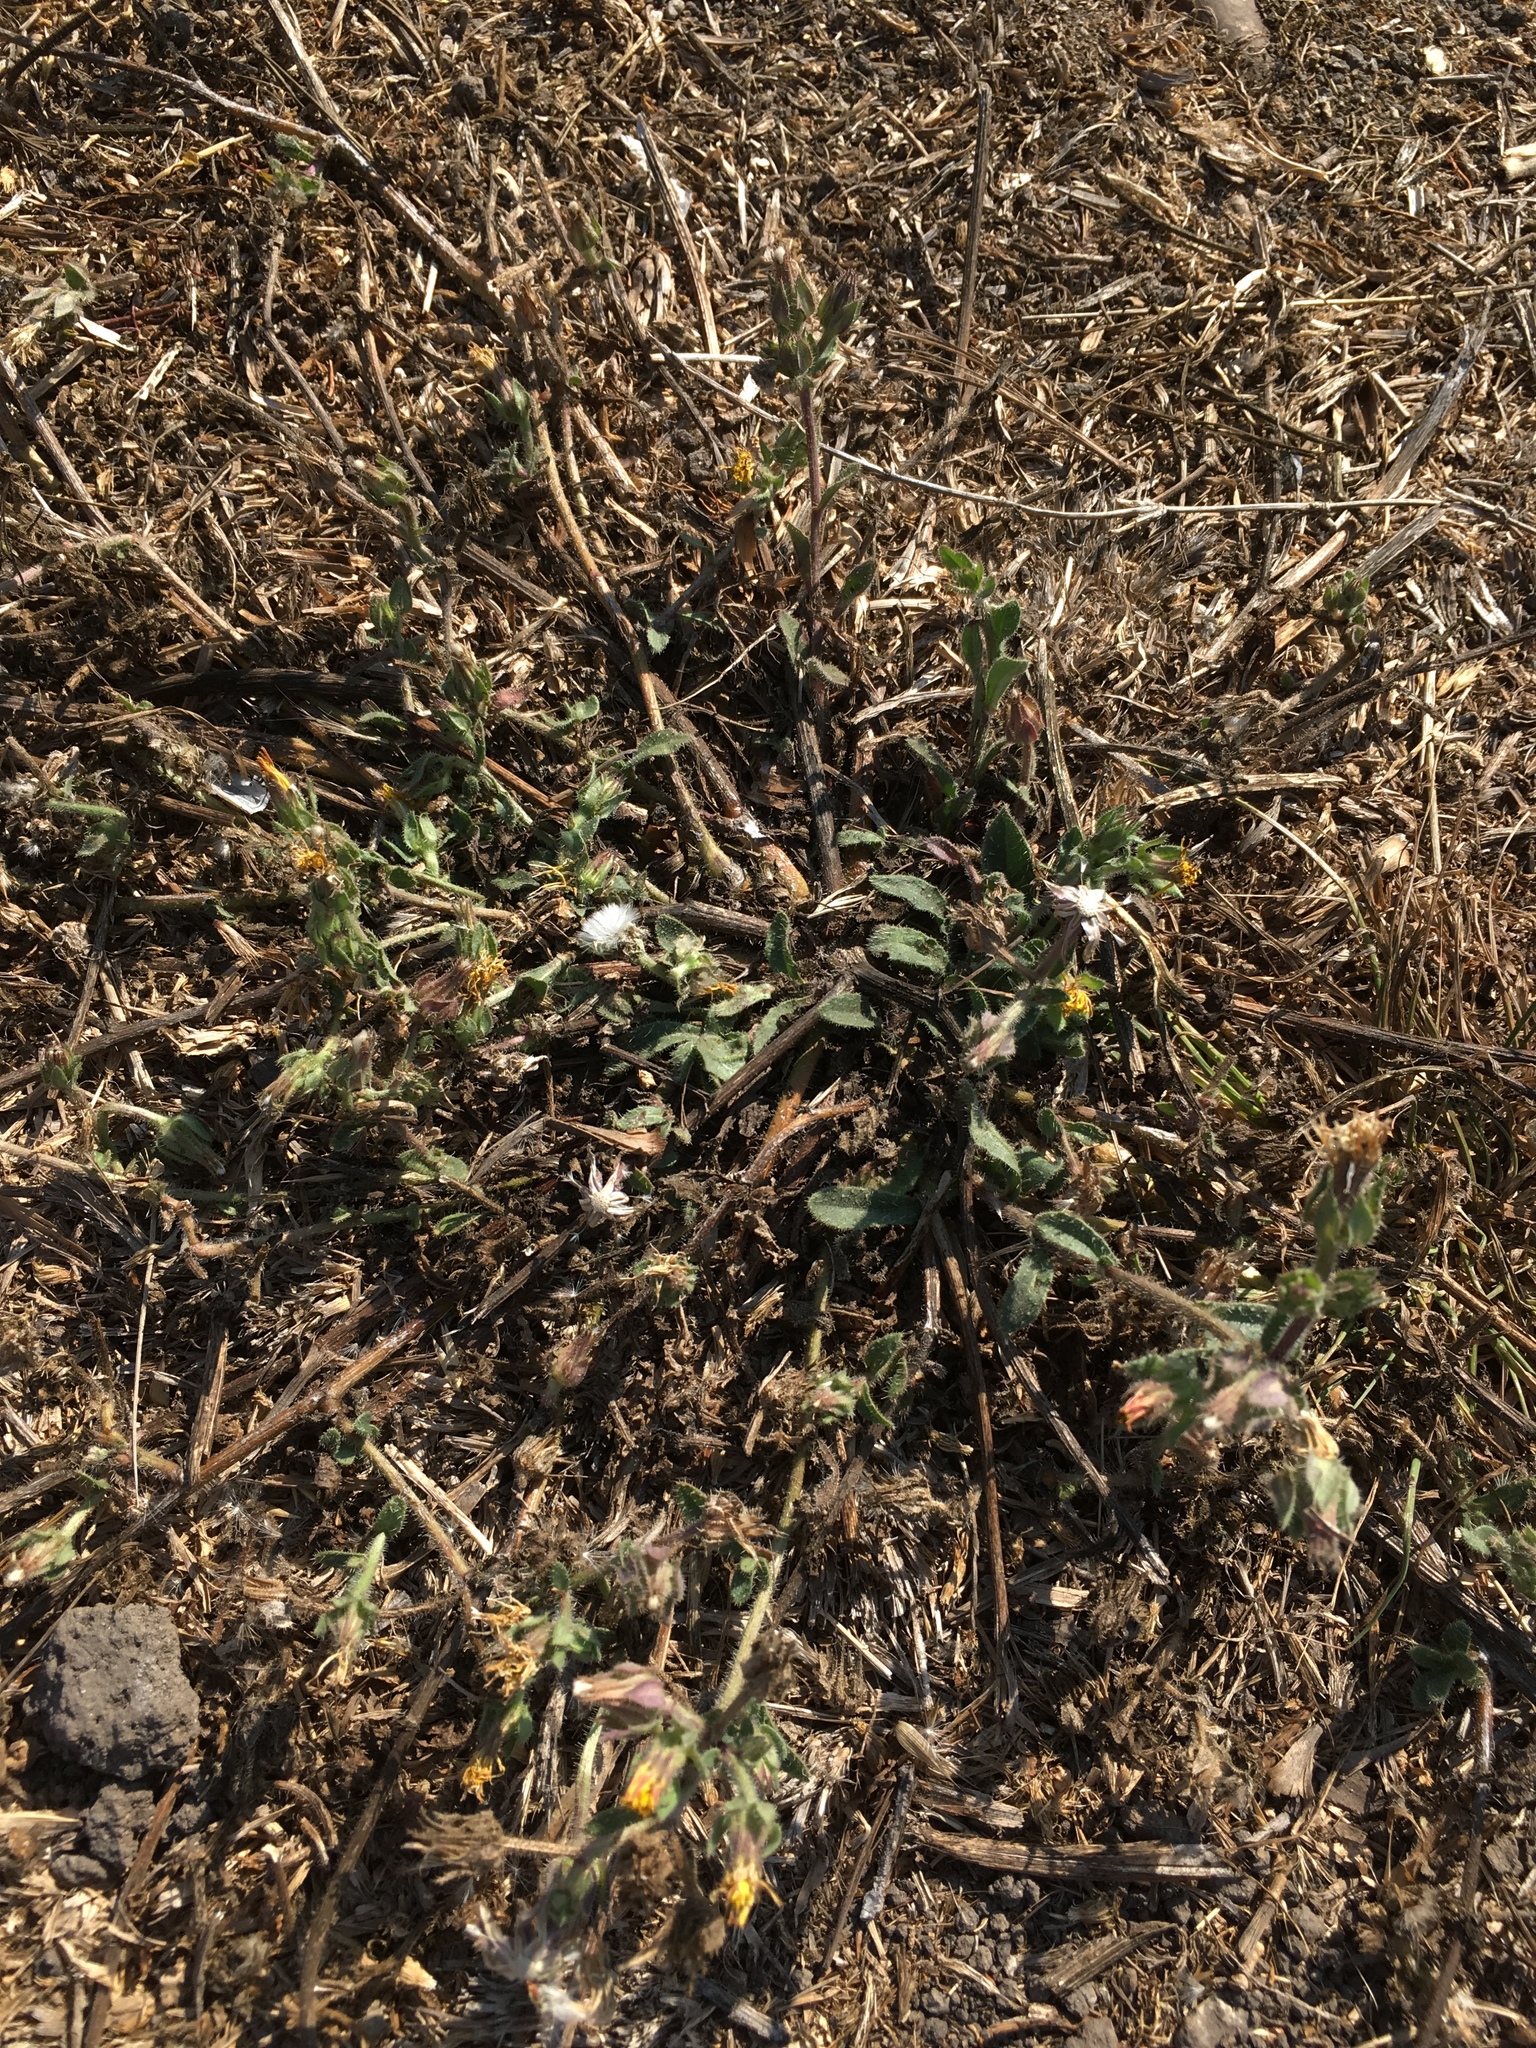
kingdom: Plantae
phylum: Tracheophyta
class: Magnoliopsida
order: Asterales
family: Asteraceae
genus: Helminthotheca
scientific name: Helminthotheca echioides
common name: Ox-tongue
